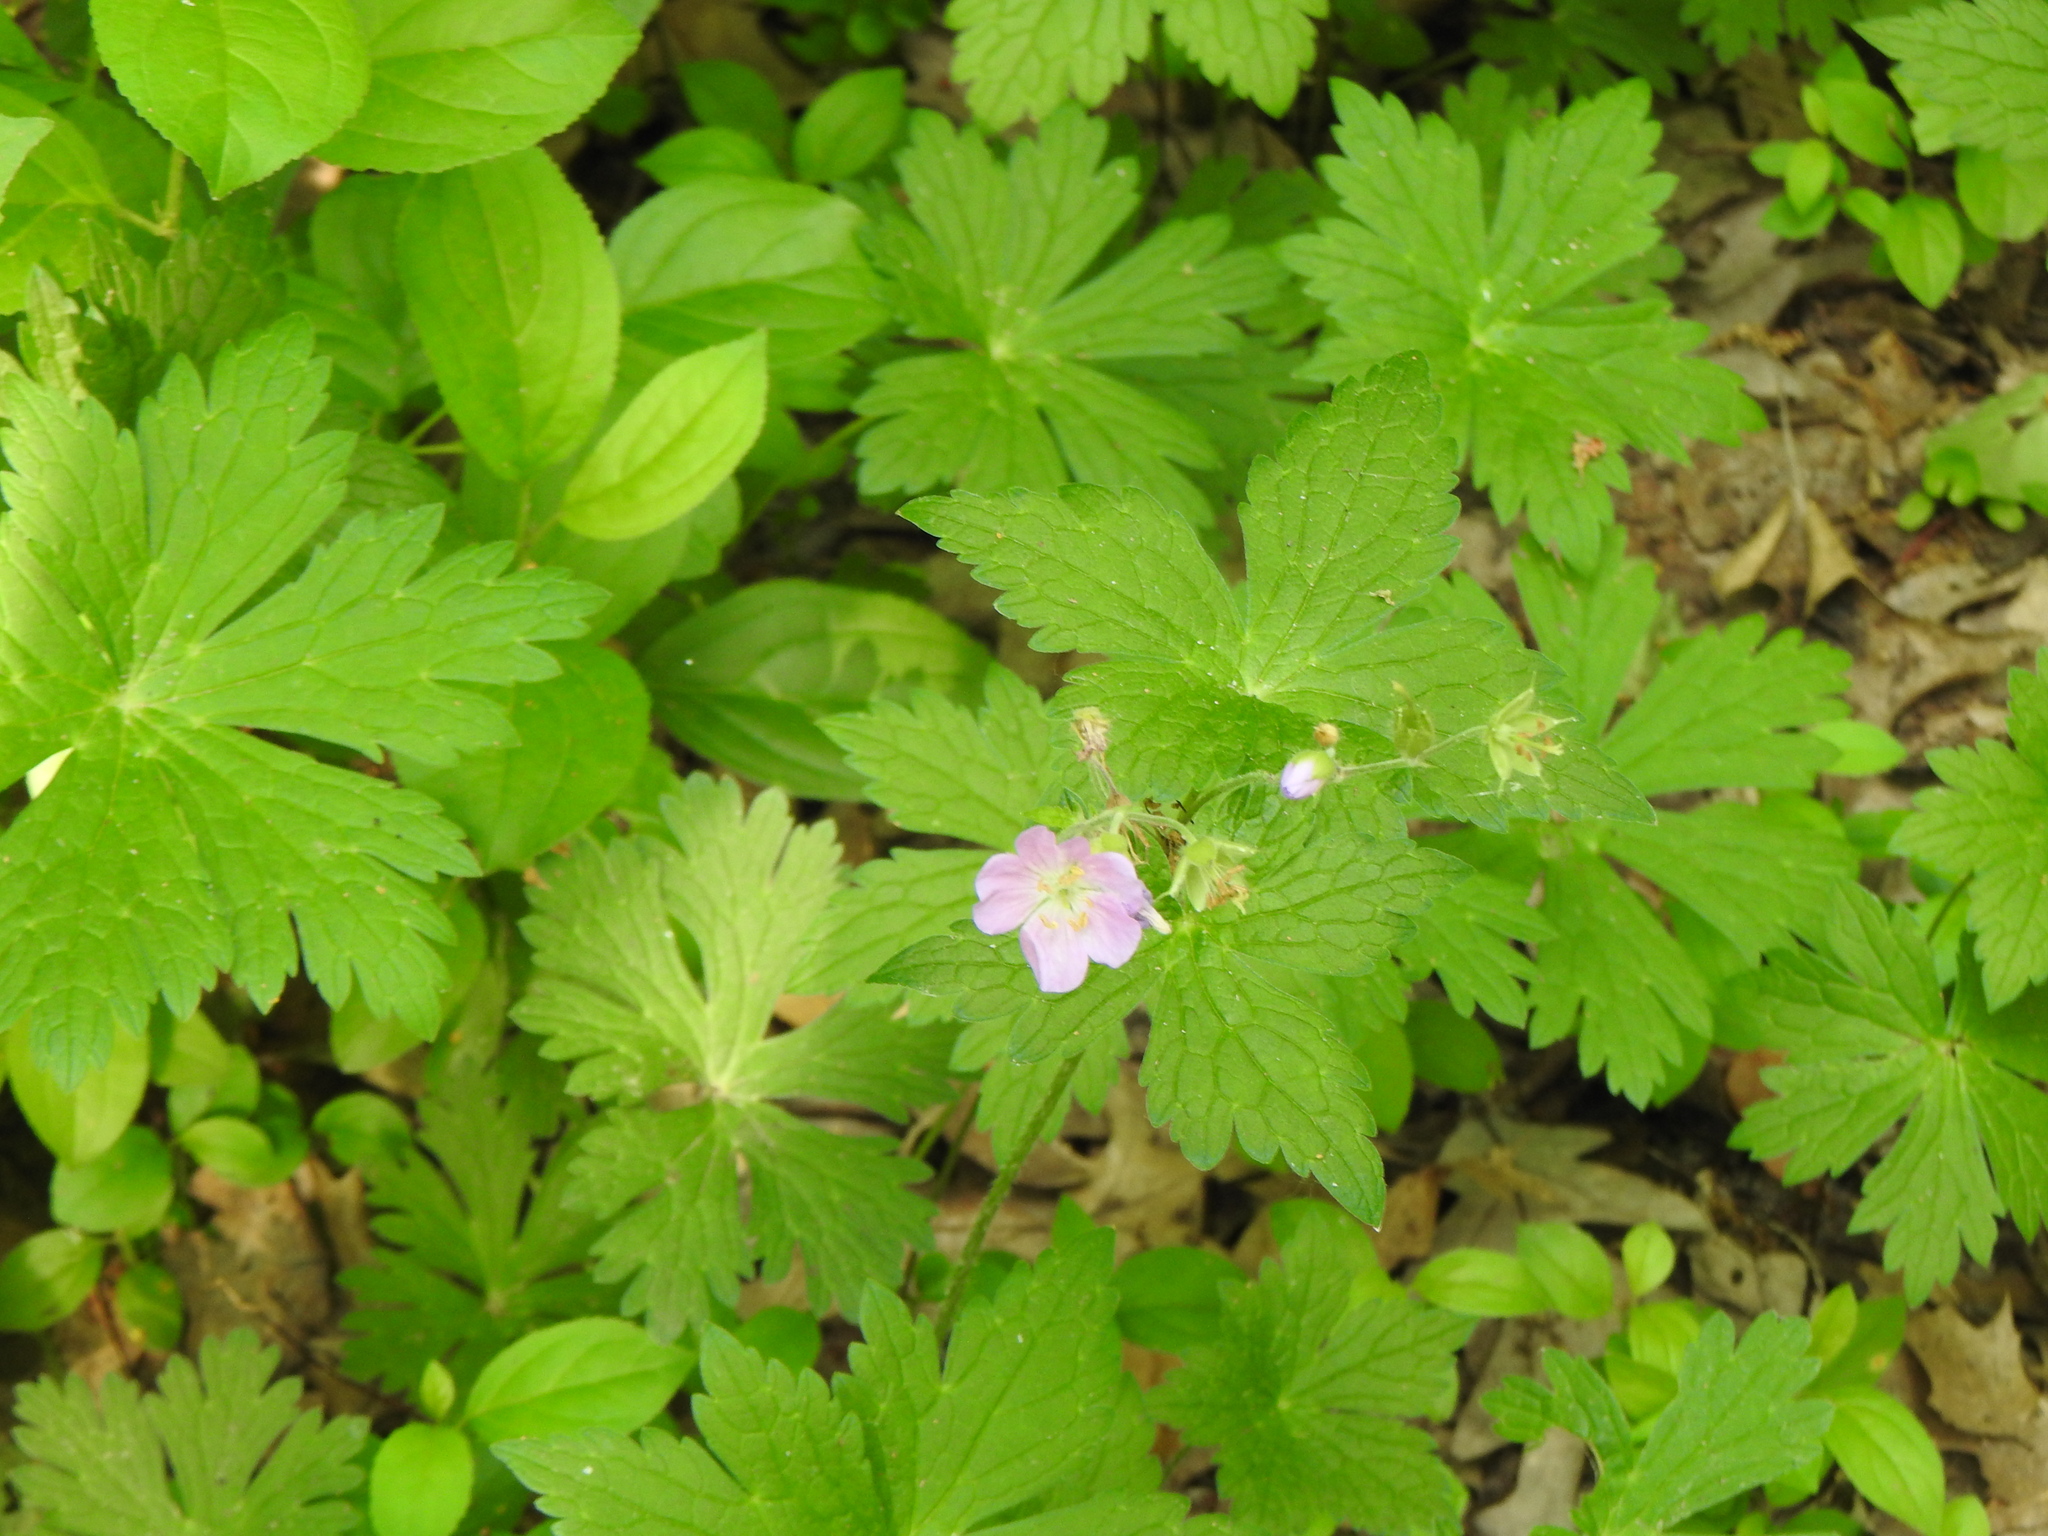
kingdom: Plantae
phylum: Tracheophyta
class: Magnoliopsida
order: Geraniales
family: Geraniaceae
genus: Geranium
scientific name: Geranium maculatum
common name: Spotted geranium
